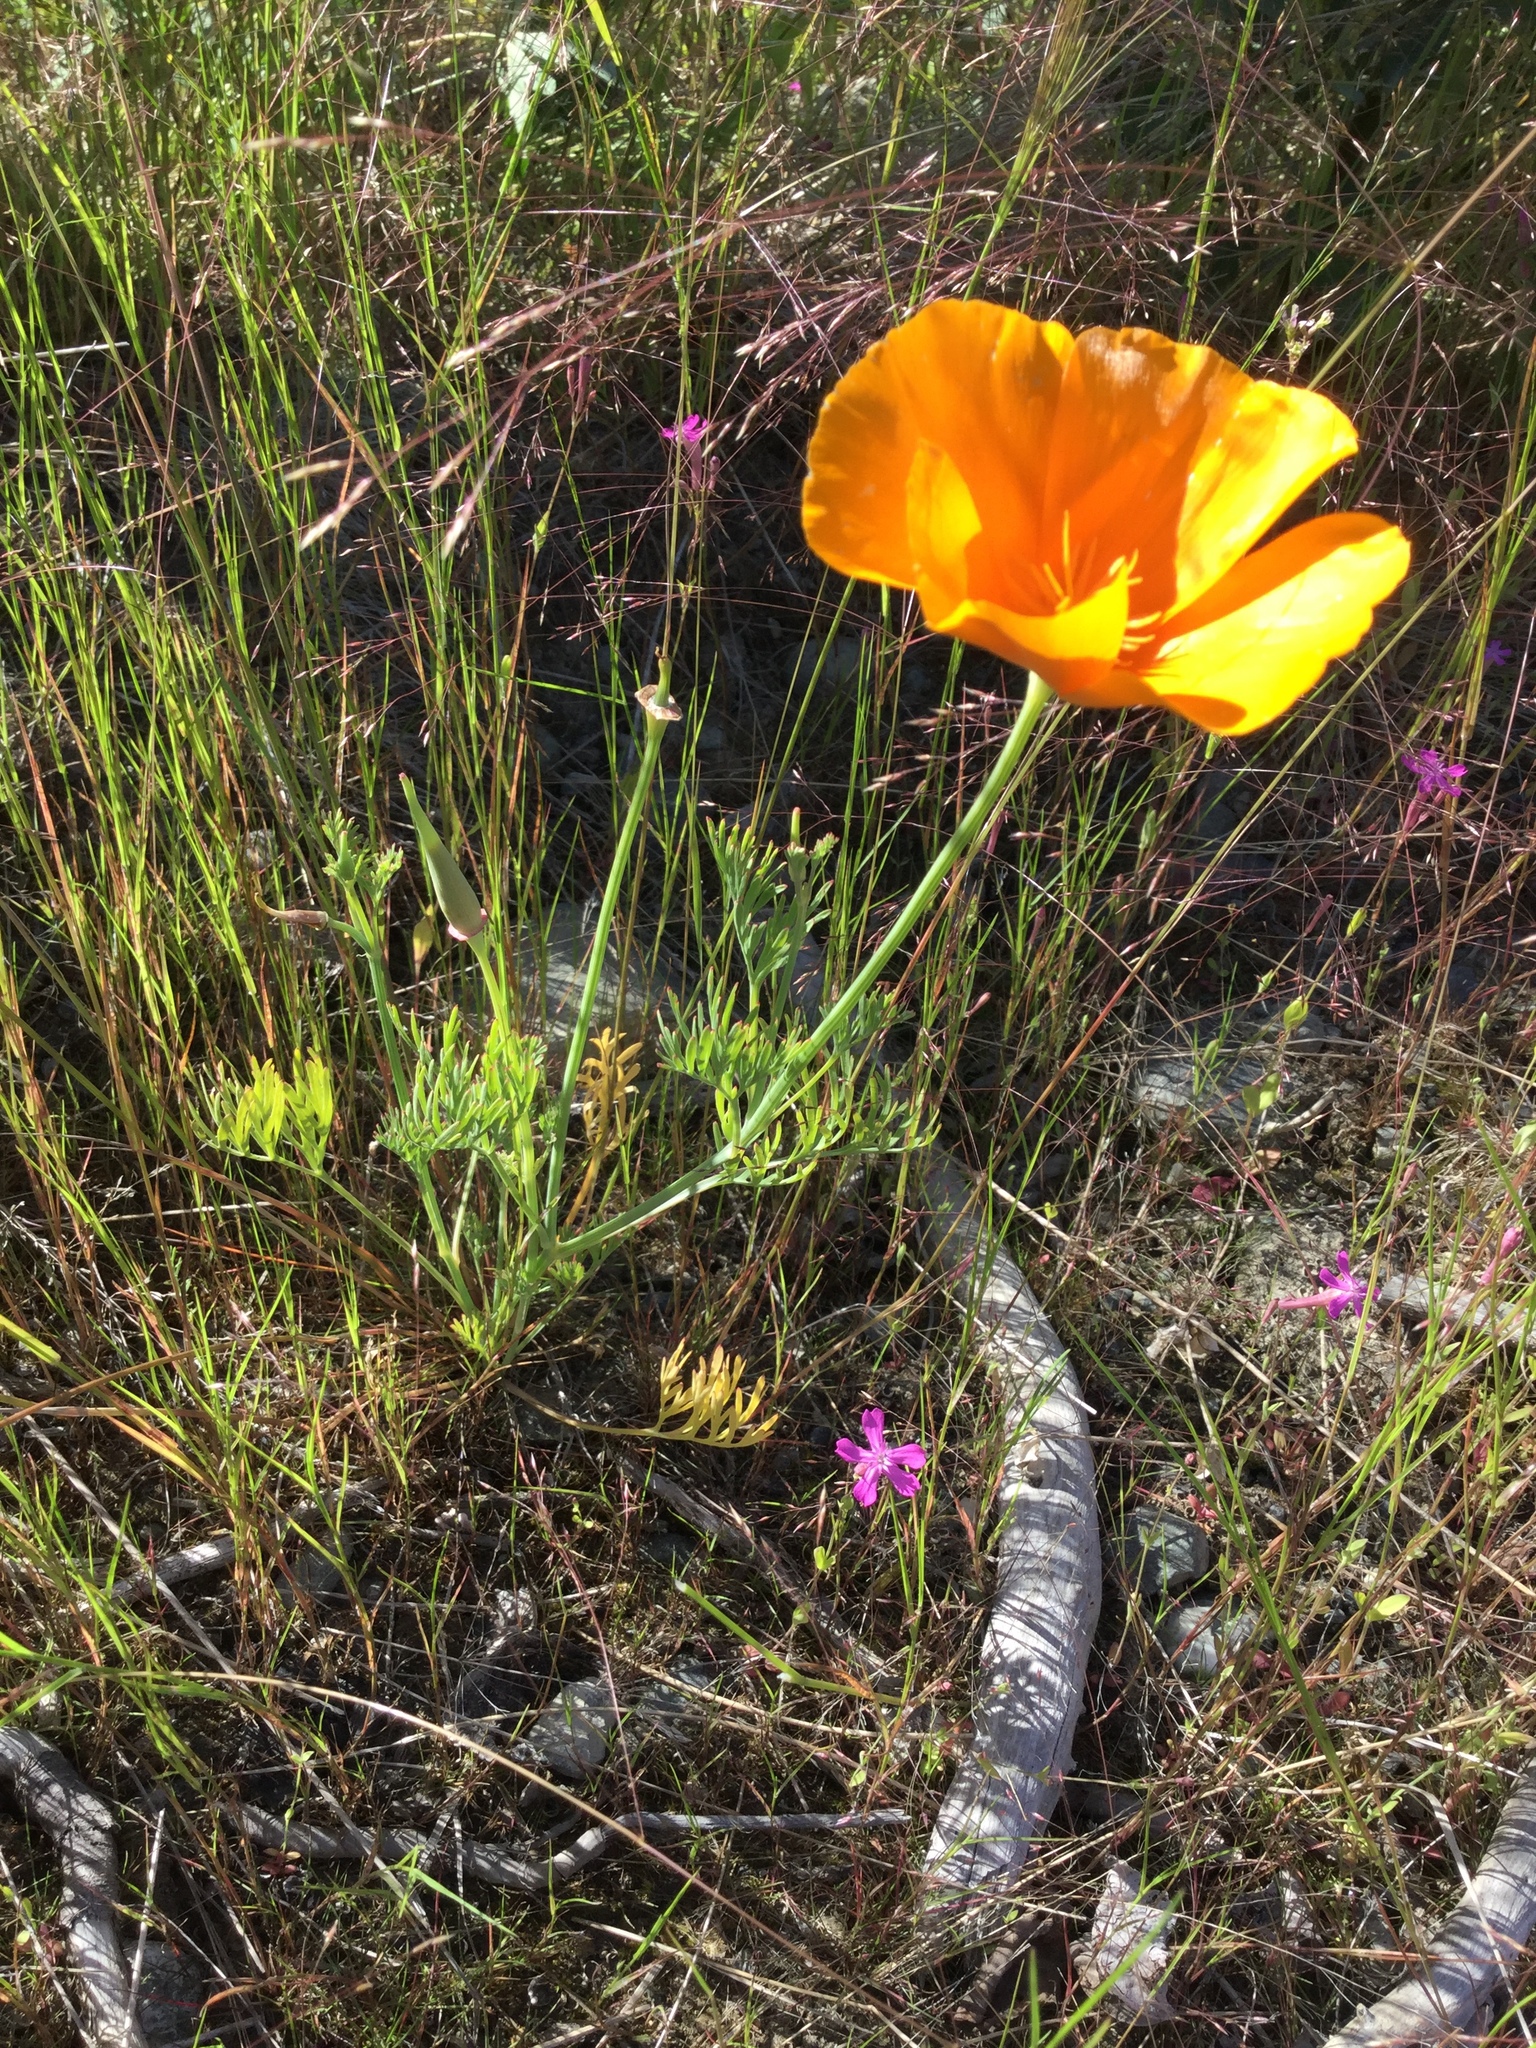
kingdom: Plantae
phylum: Tracheophyta
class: Magnoliopsida
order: Ranunculales
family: Papaveraceae
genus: Eschscholzia
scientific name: Eschscholzia californica
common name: California poppy
